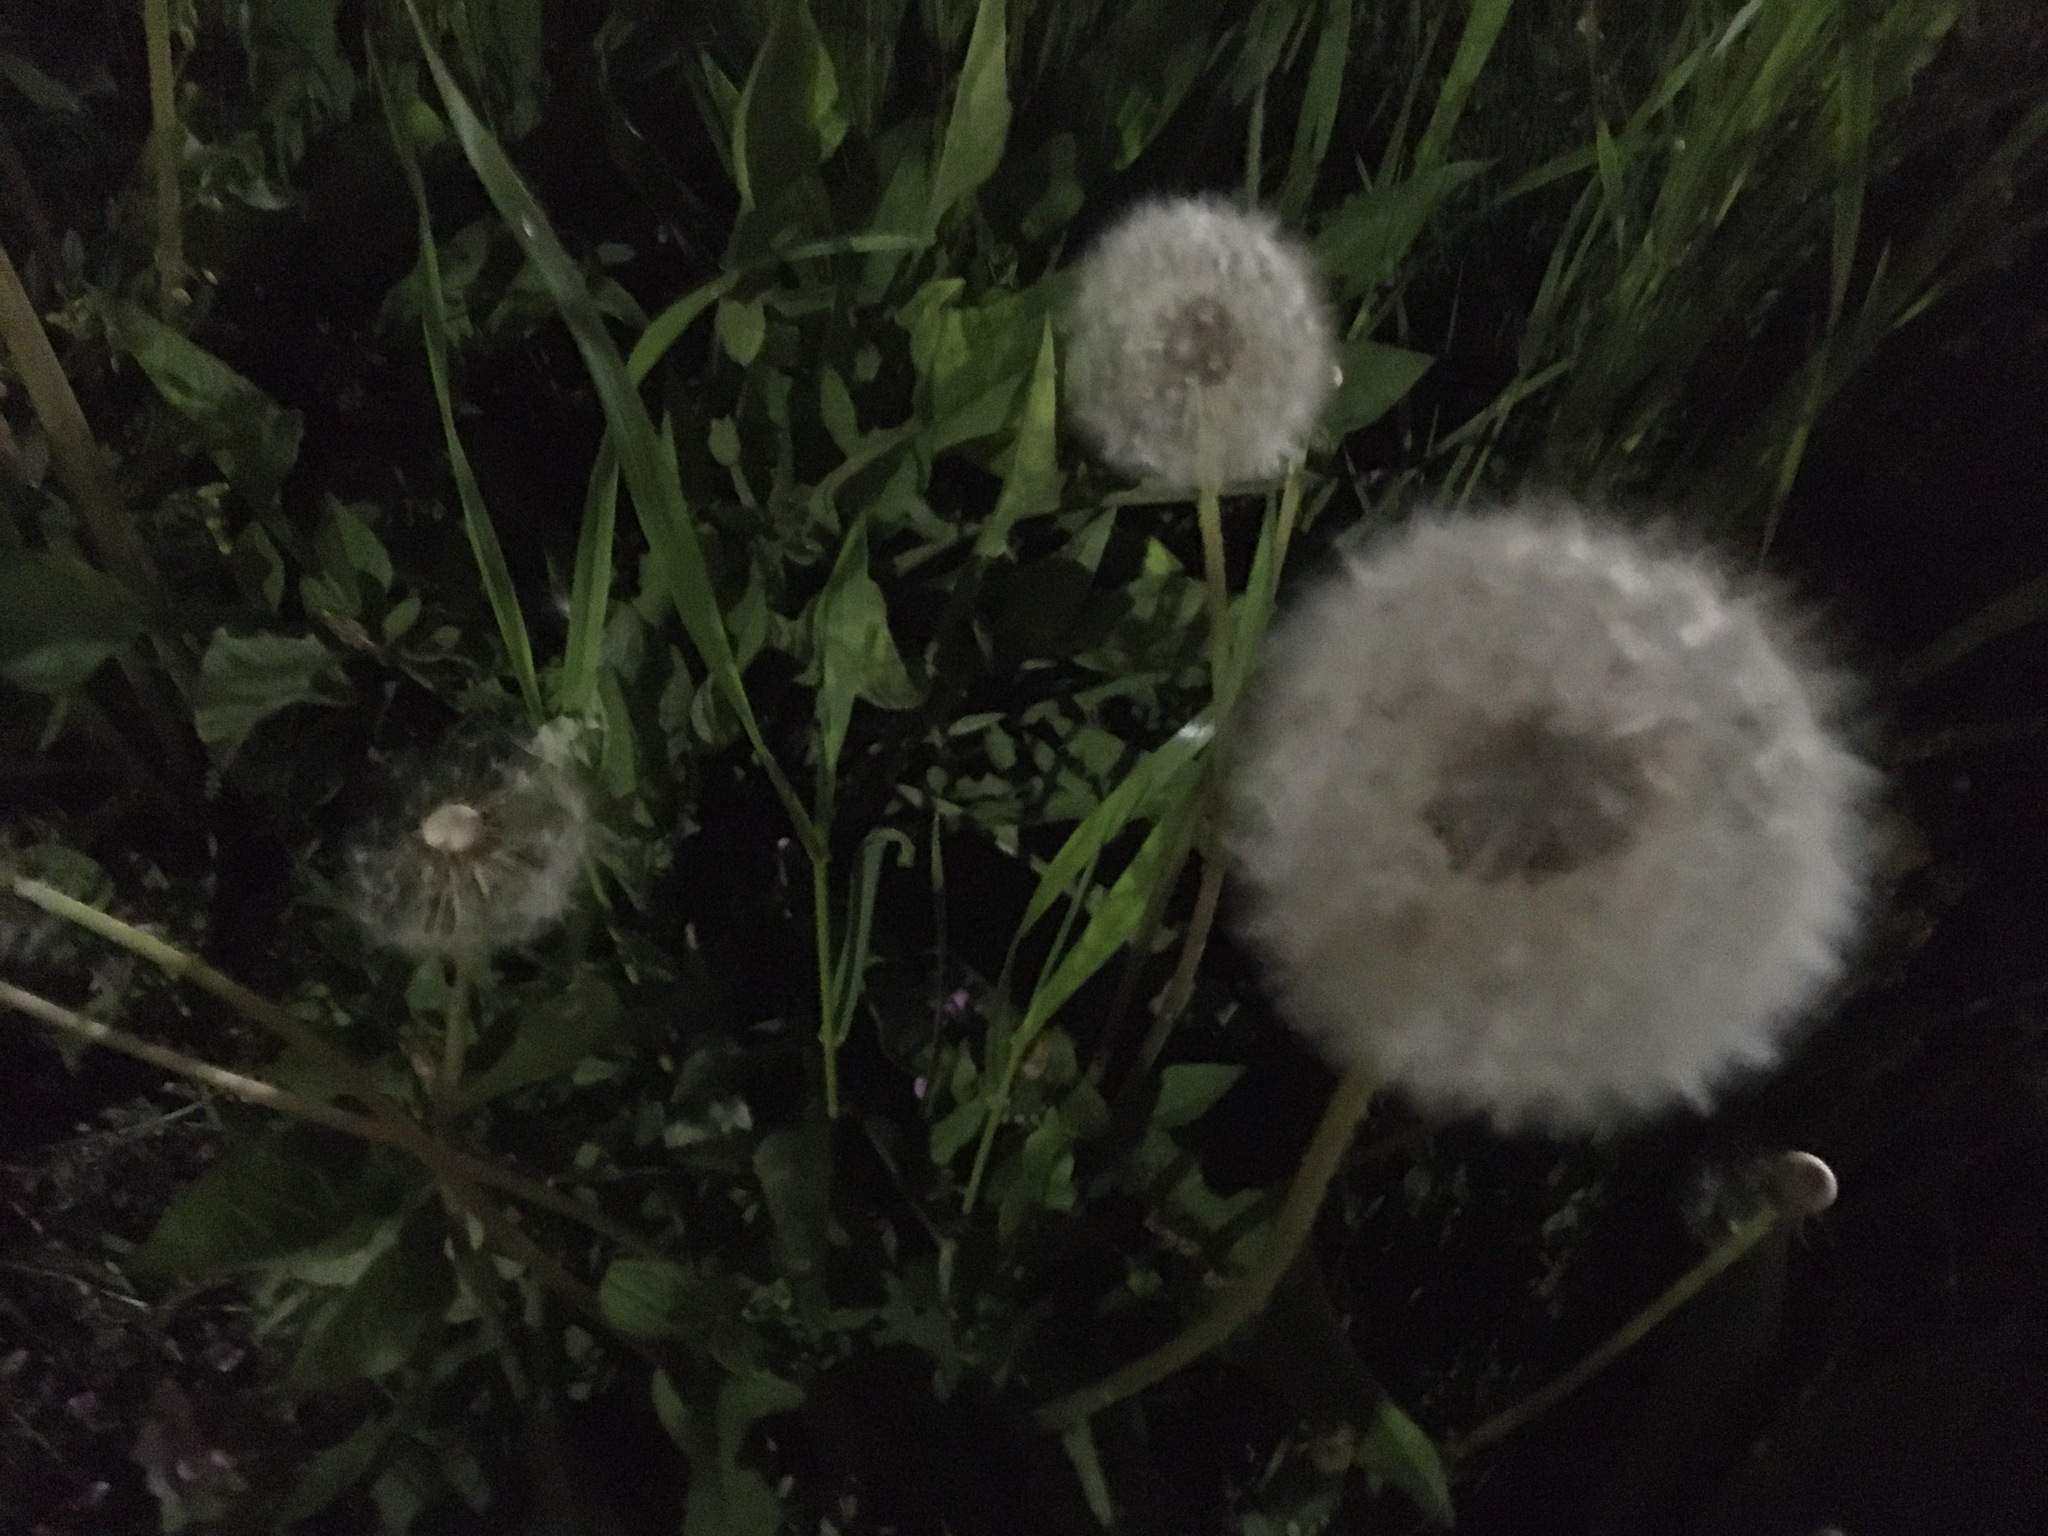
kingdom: Plantae
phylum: Tracheophyta
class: Magnoliopsida
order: Asterales
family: Asteraceae
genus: Taraxacum
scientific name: Taraxacum officinale
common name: Common dandelion
